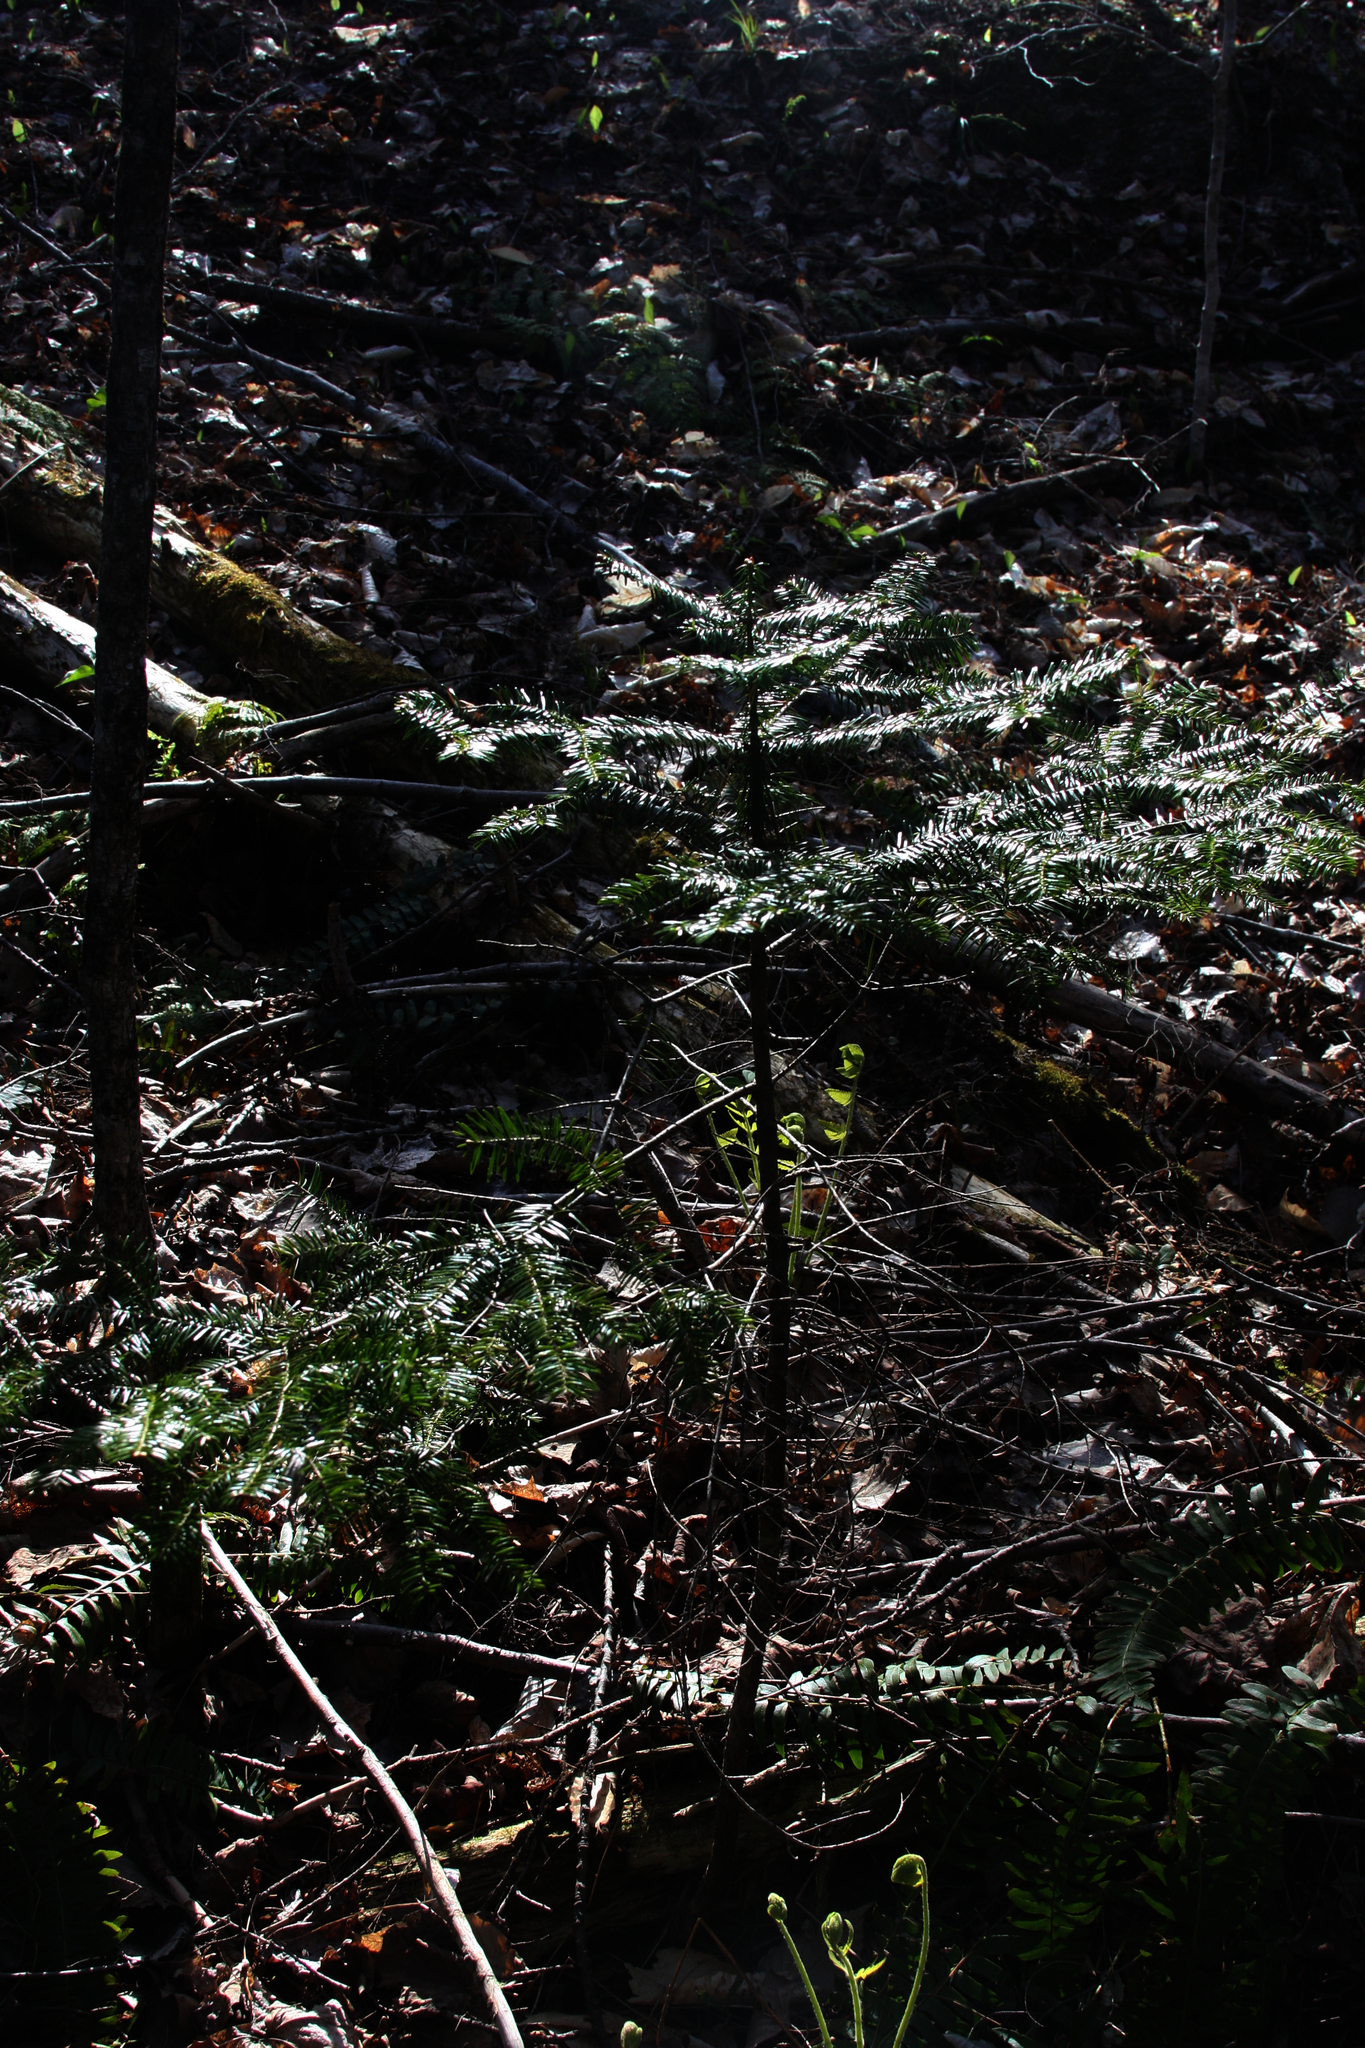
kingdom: Plantae
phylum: Tracheophyta
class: Pinopsida
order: Pinales
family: Pinaceae
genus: Abies
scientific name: Abies balsamea
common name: Balsam fir
